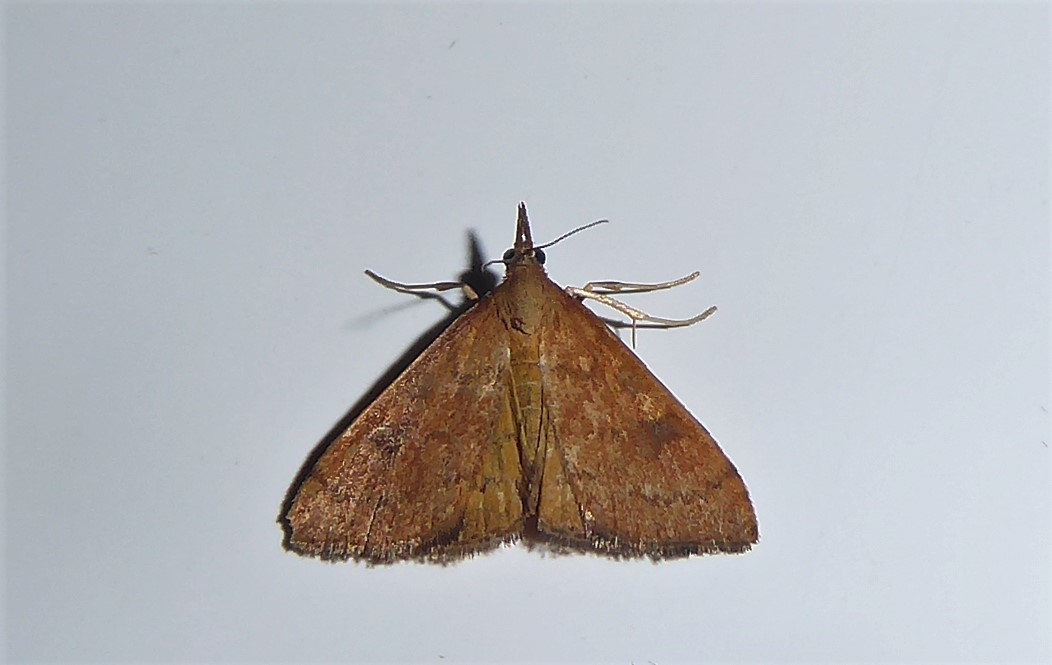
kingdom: Animalia
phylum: Arthropoda
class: Insecta
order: Lepidoptera
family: Crambidae
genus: Udea
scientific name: Udea Mnesictena flavidalis
